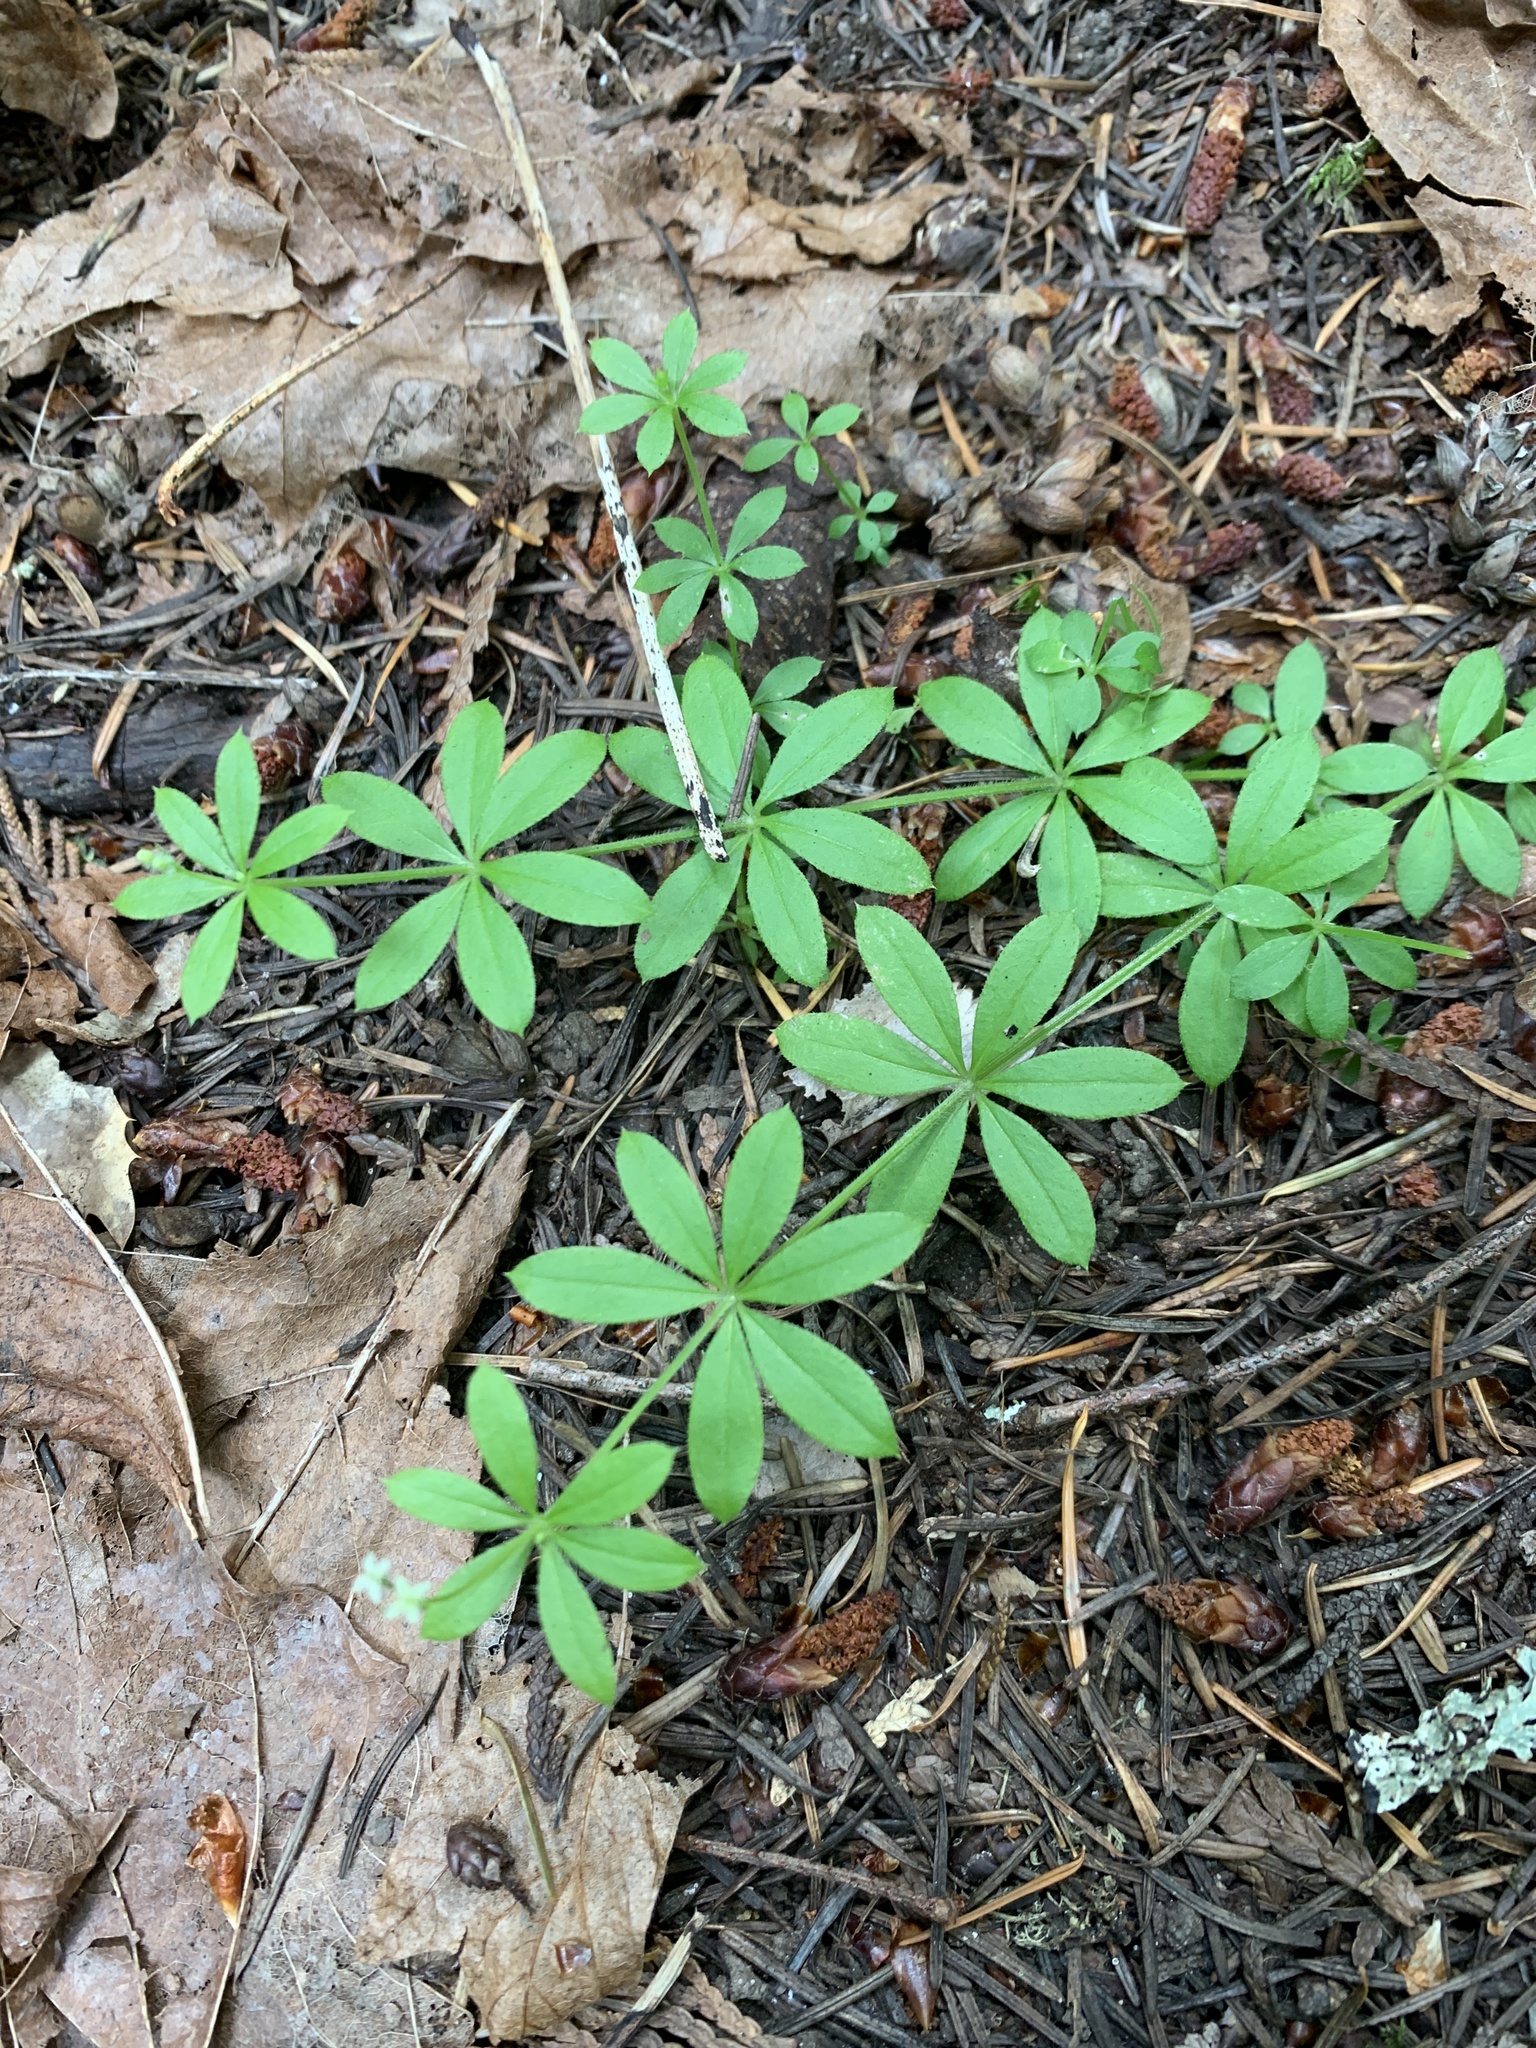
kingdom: Plantae
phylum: Tracheophyta
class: Magnoliopsida
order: Gentianales
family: Rubiaceae
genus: Galium
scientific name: Galium triflorum
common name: Fragrant bedstraw
